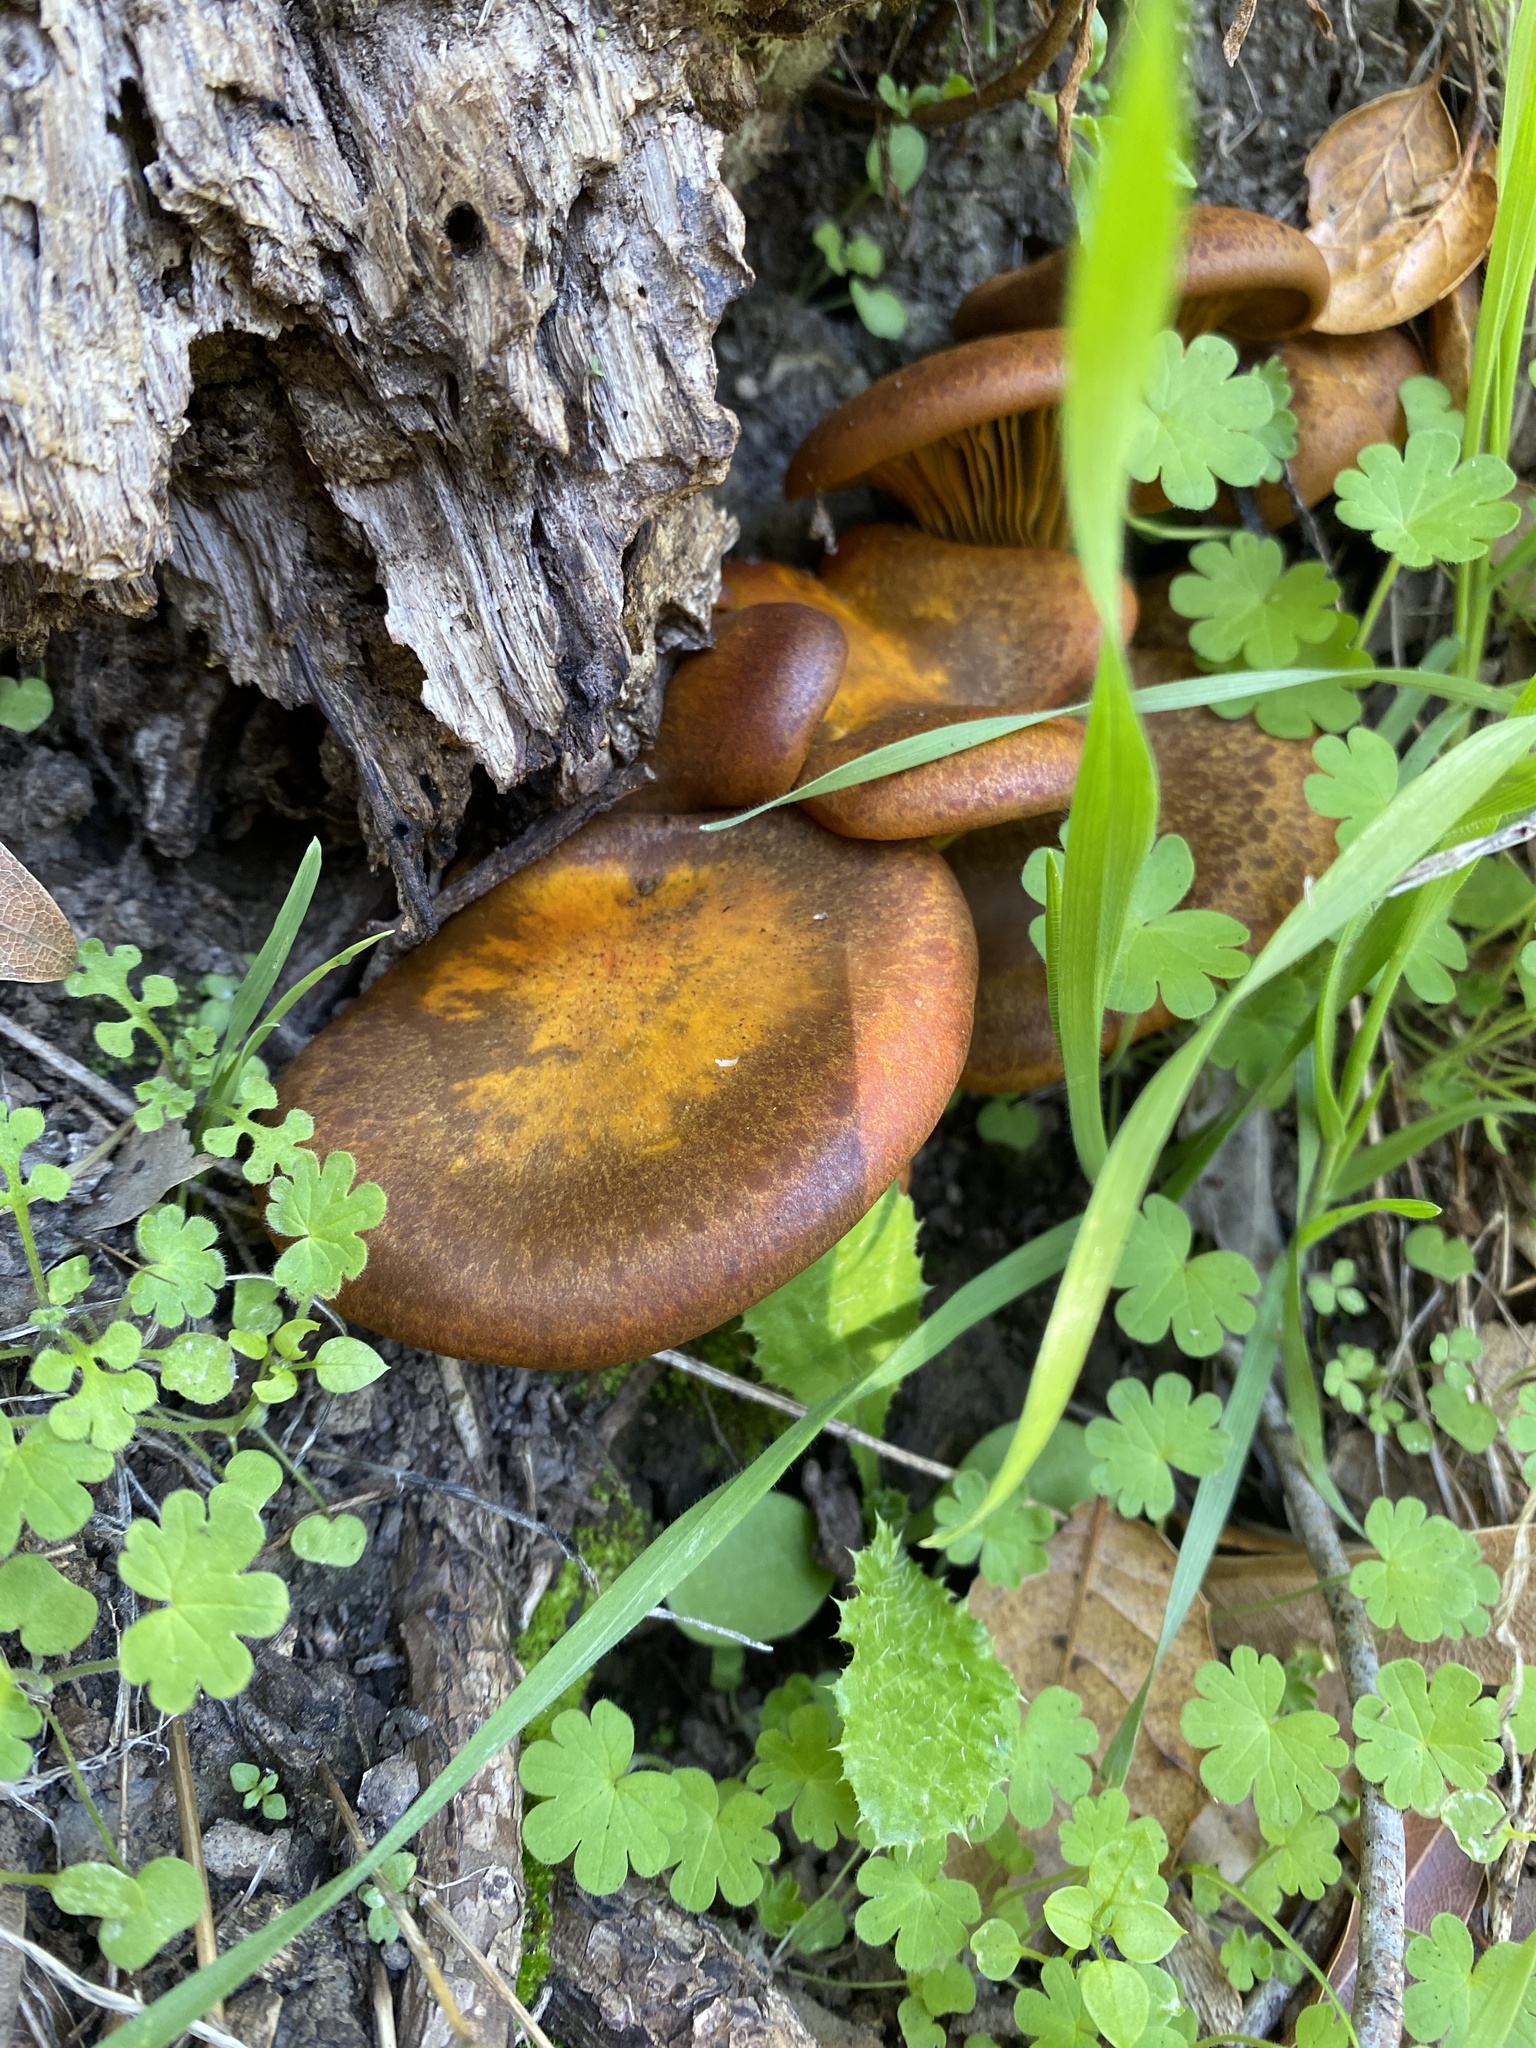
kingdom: Fungi
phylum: Basidiomycota
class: Agaricomycetes
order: Agaricales
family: Omphalotaceae
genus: Omphalotus
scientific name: Omphalotus olivascens
